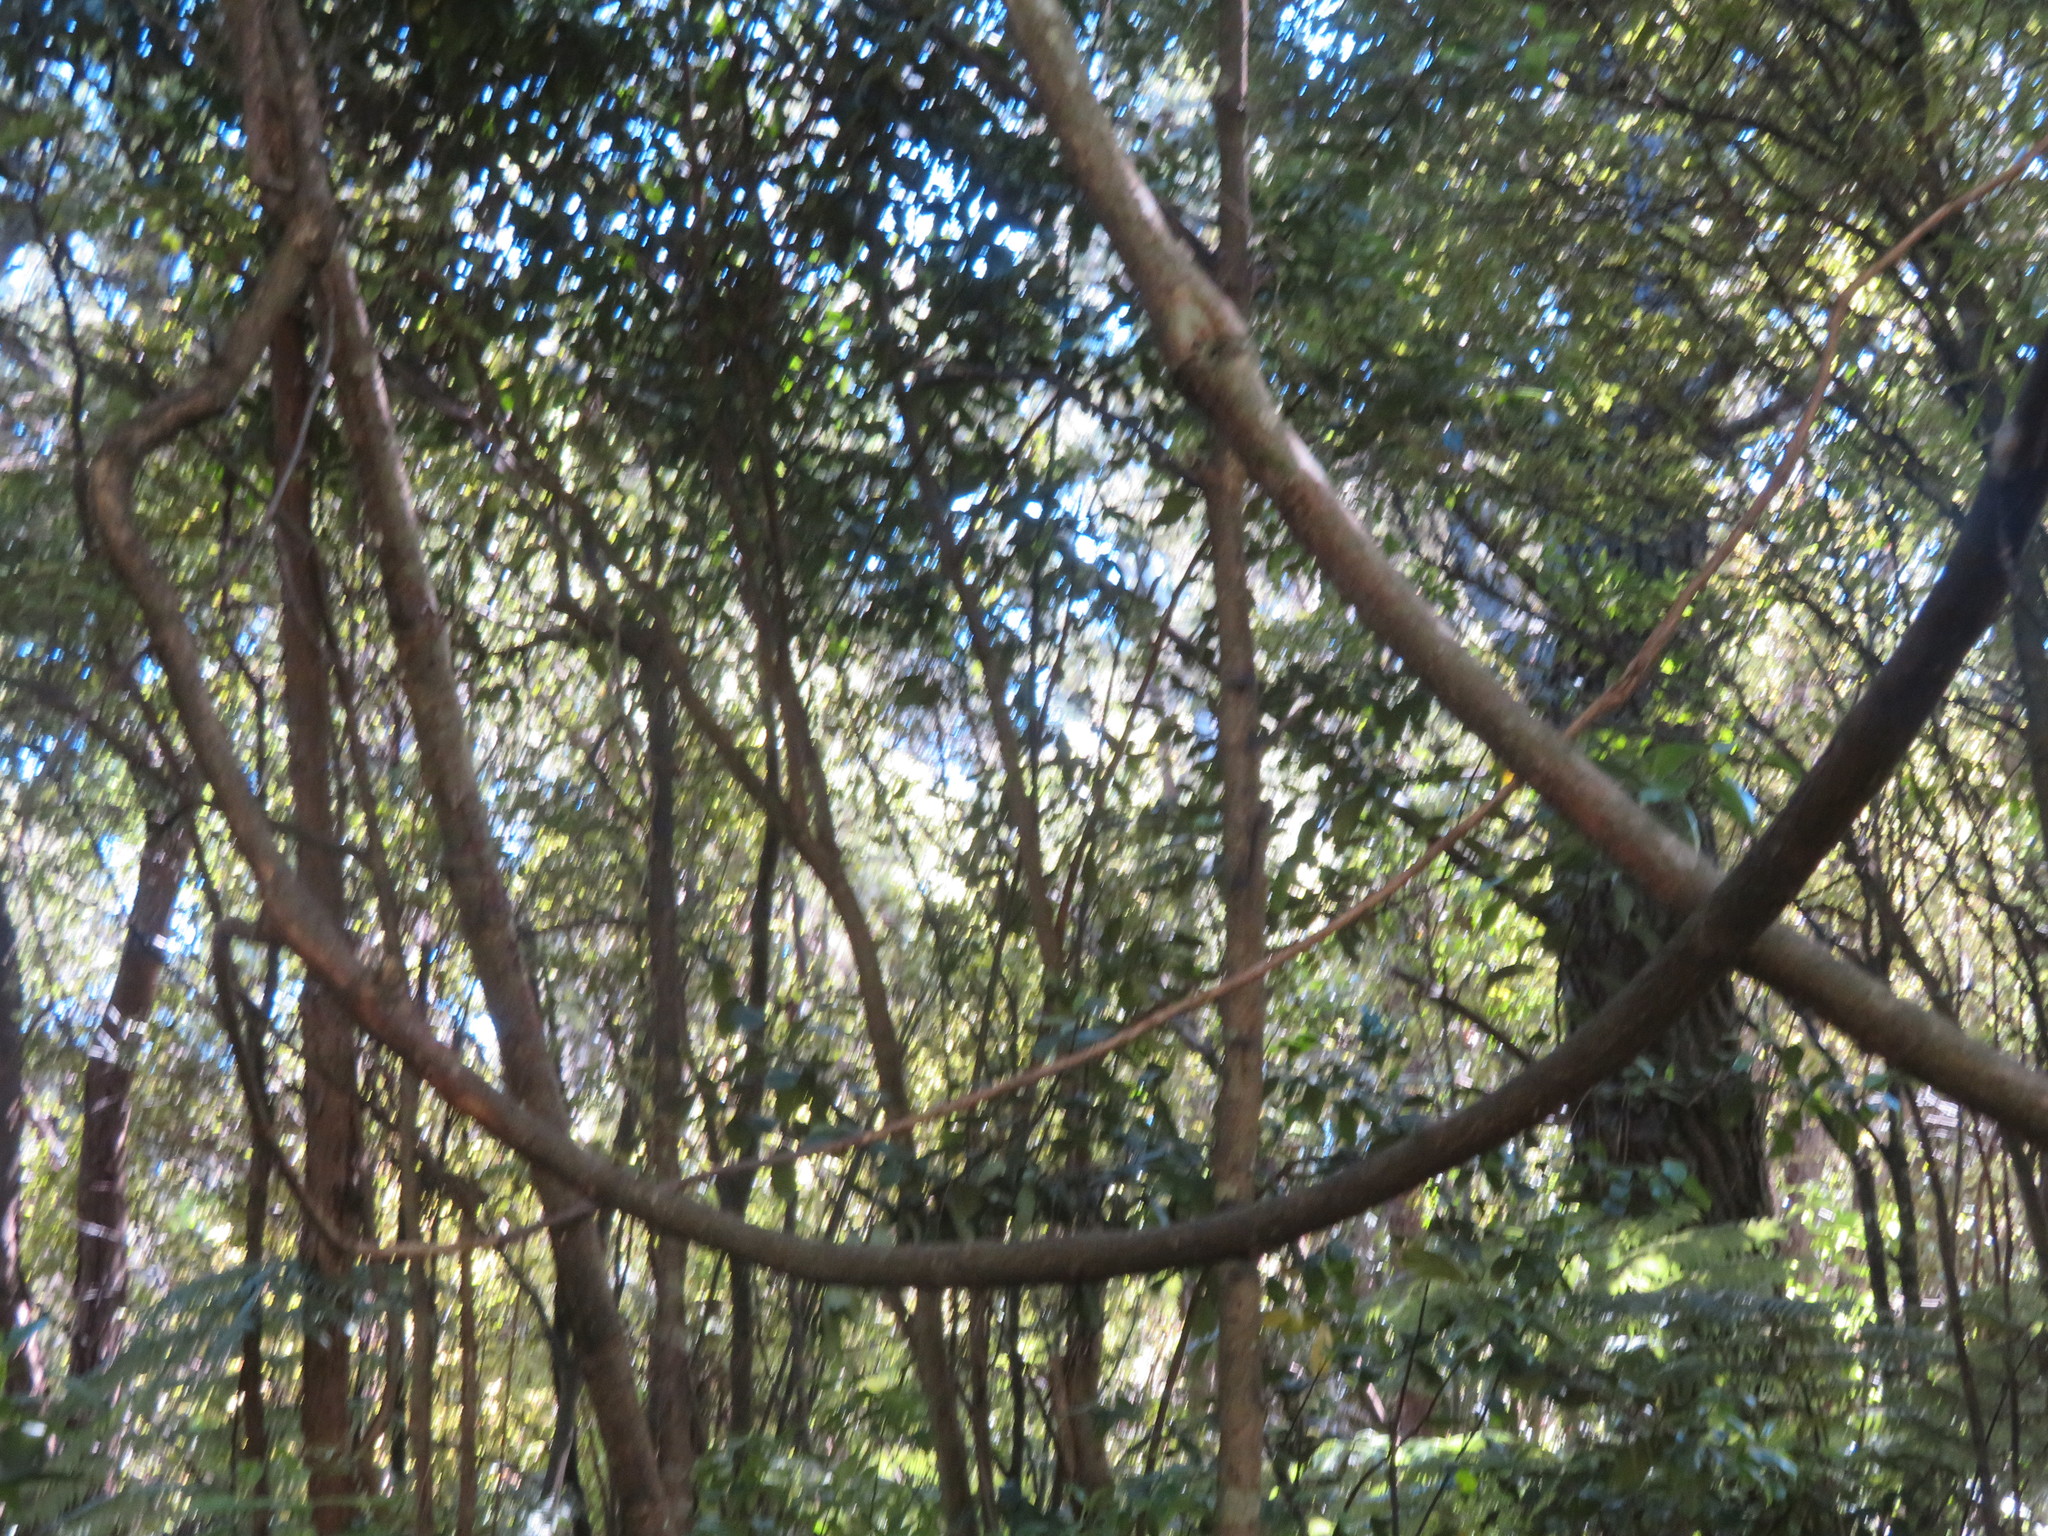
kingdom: Plantae
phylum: Tracheophyta
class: Magnoliopsida
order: Rosales
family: Rosaceae
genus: Rubus
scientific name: Rubus cissoides
